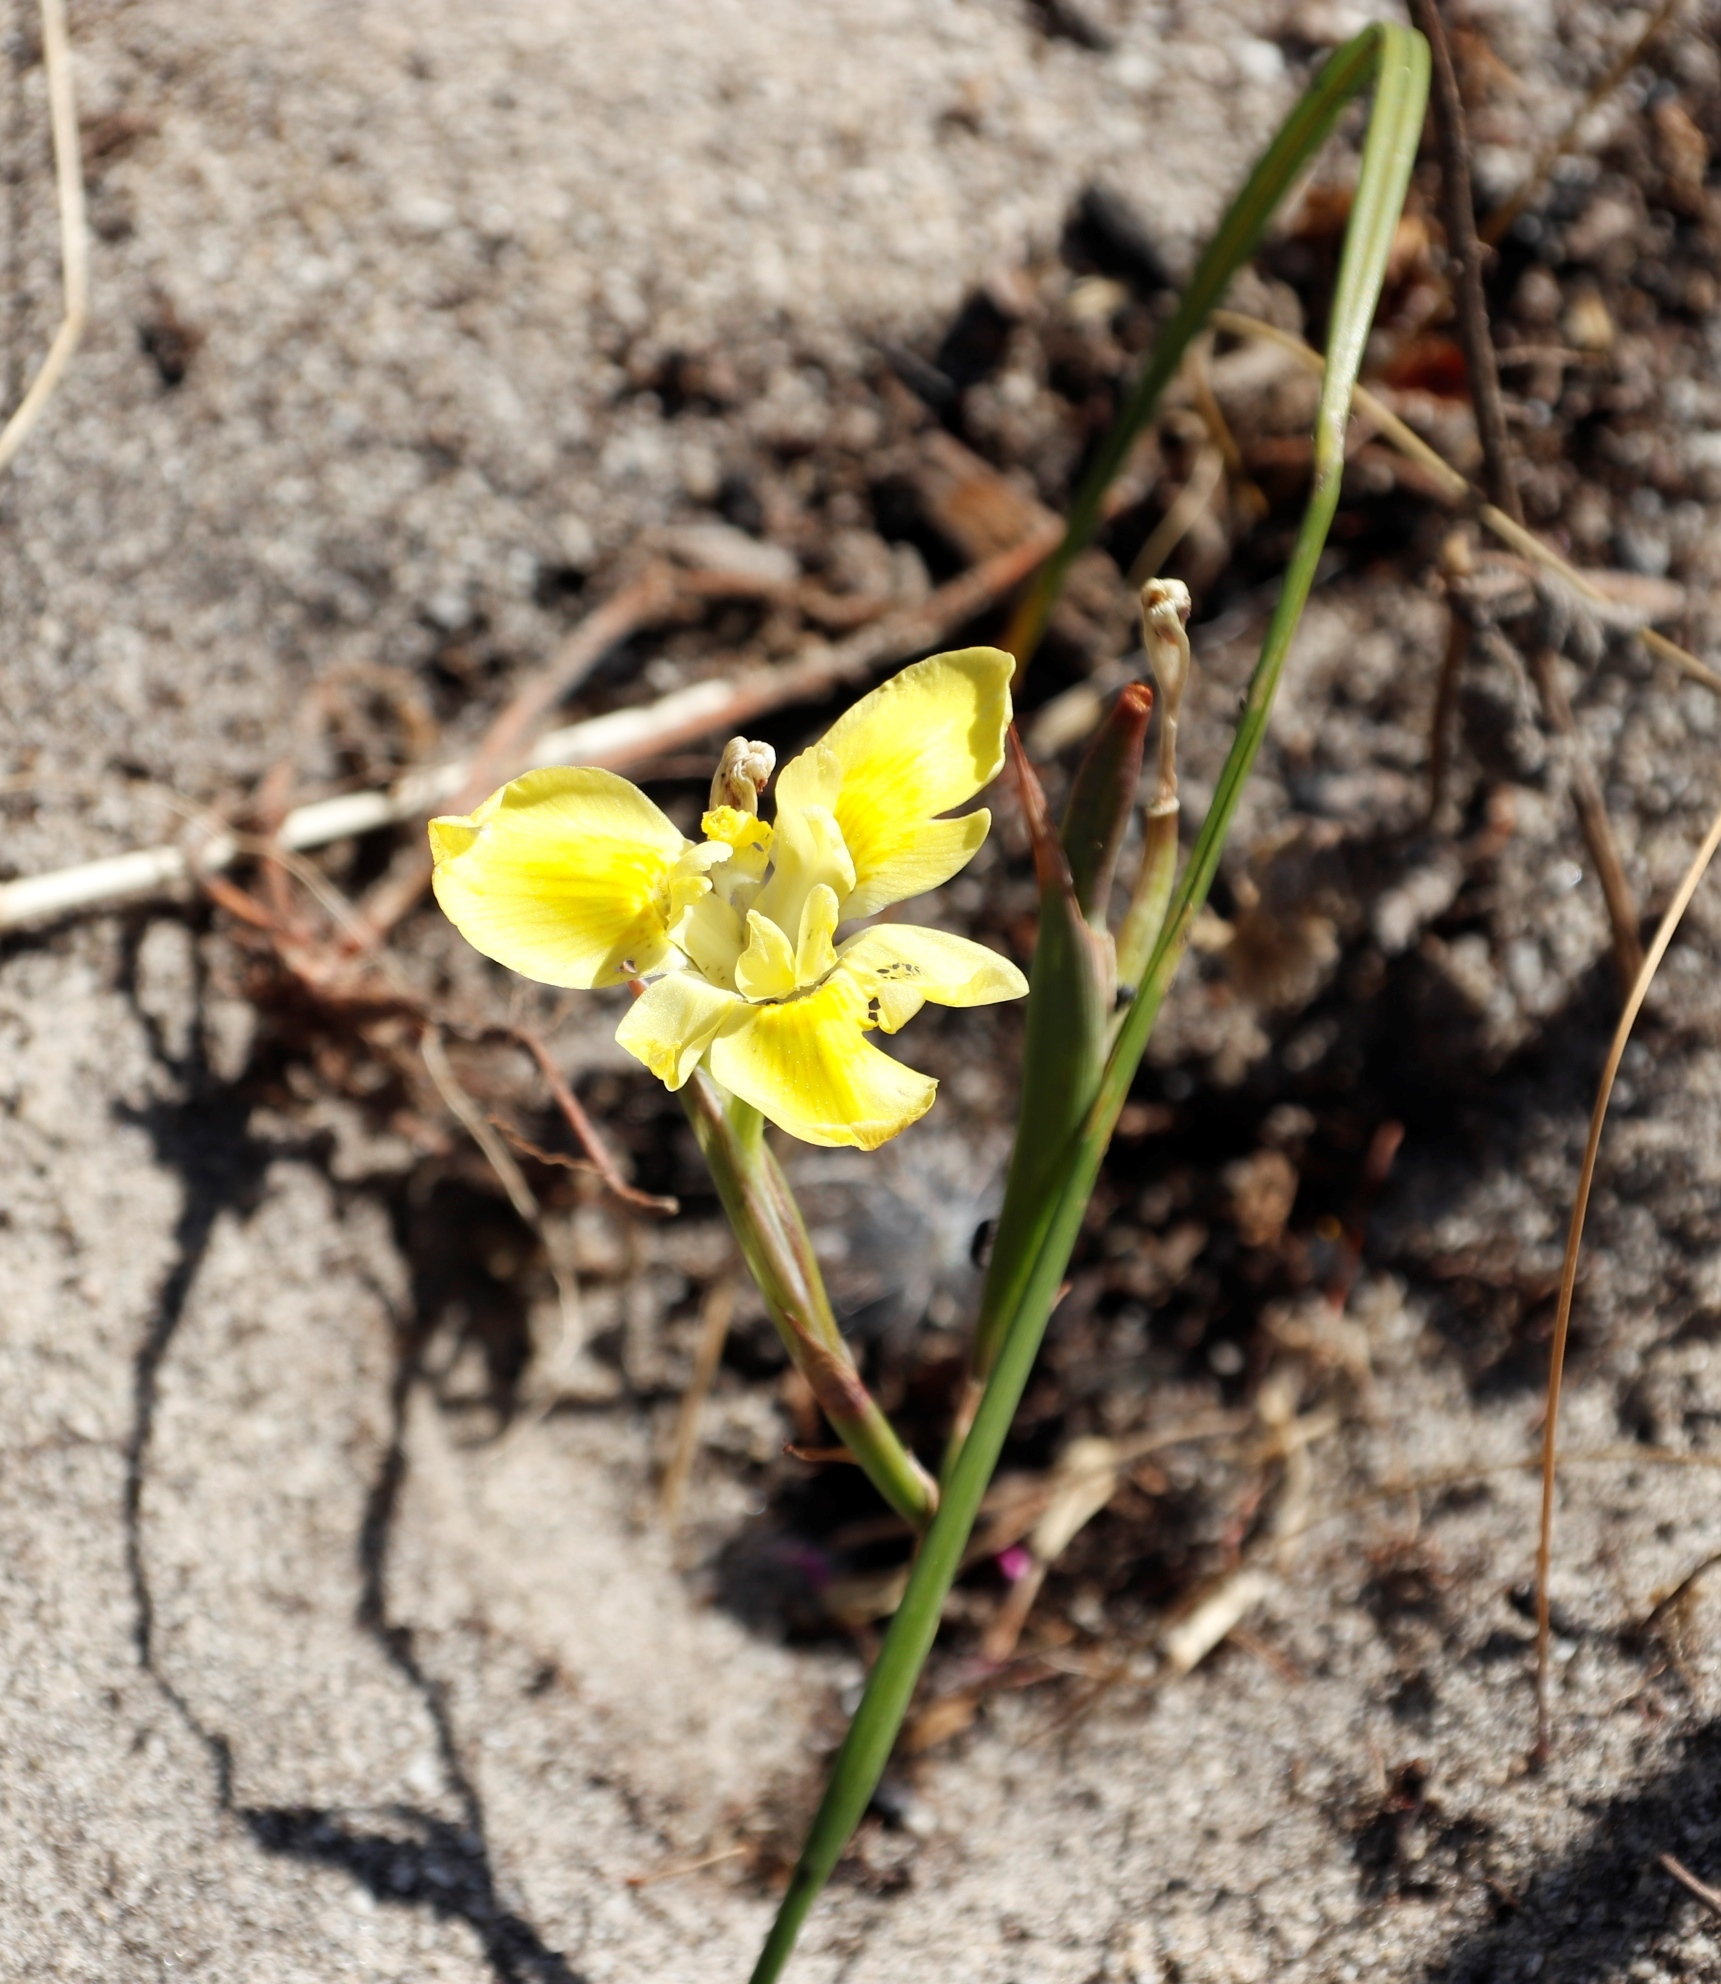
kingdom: Plantae
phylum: Tracheophyta
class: Liliopsida
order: Asparagales
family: Iridaceae
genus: Moraea
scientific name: Moraea fugax
